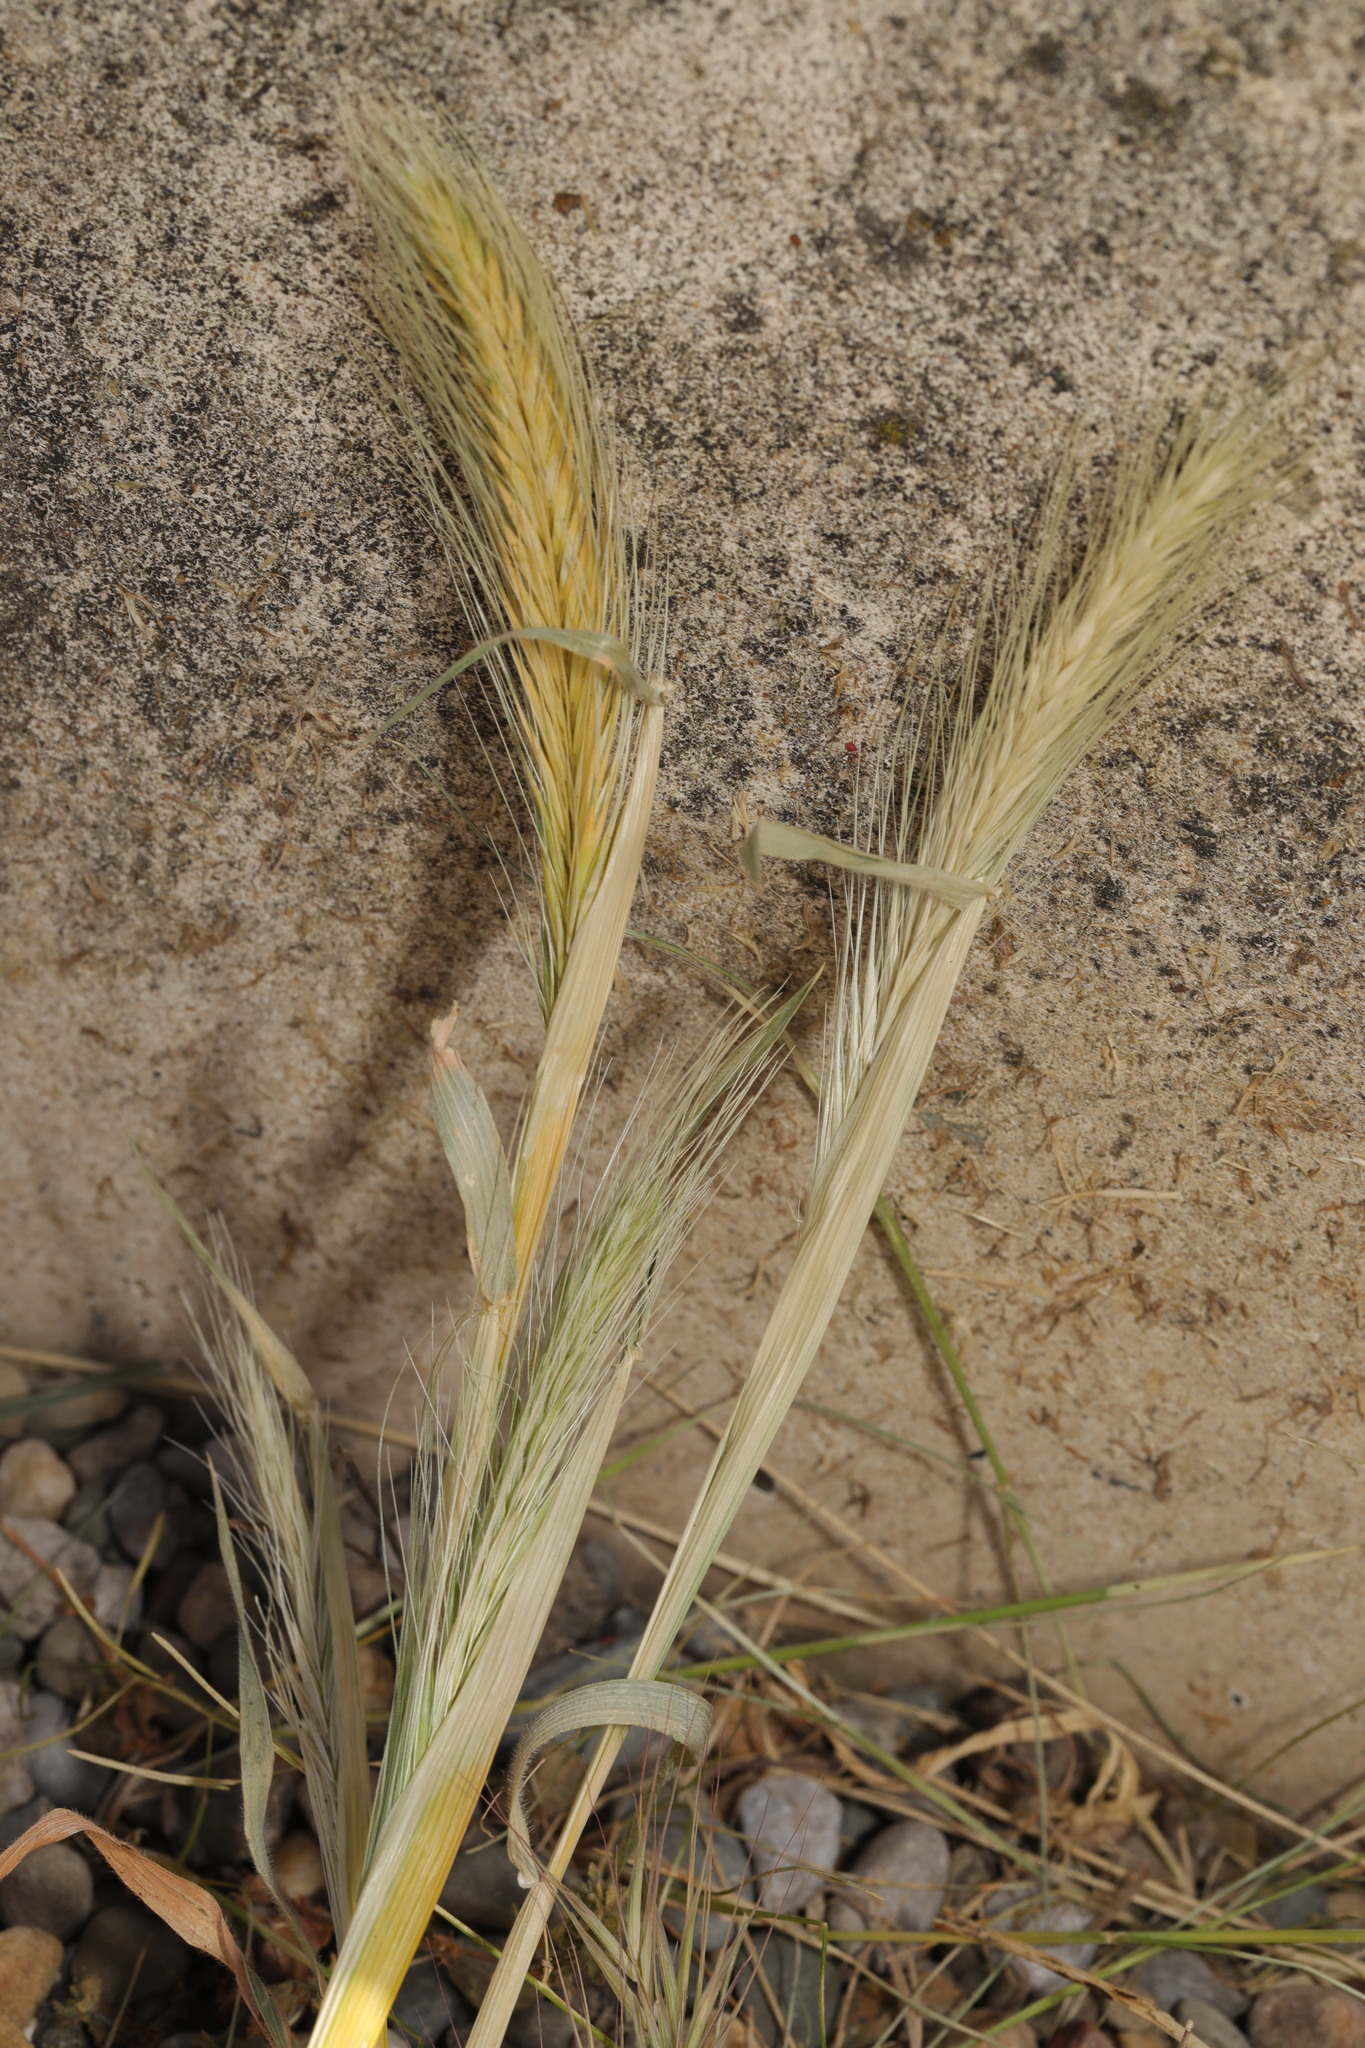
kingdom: Plantae
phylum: Tracheophyta
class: Liliopsida
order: Poales
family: Poaceae
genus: Hordeum
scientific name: Hordeum murinum
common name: Wall barley
